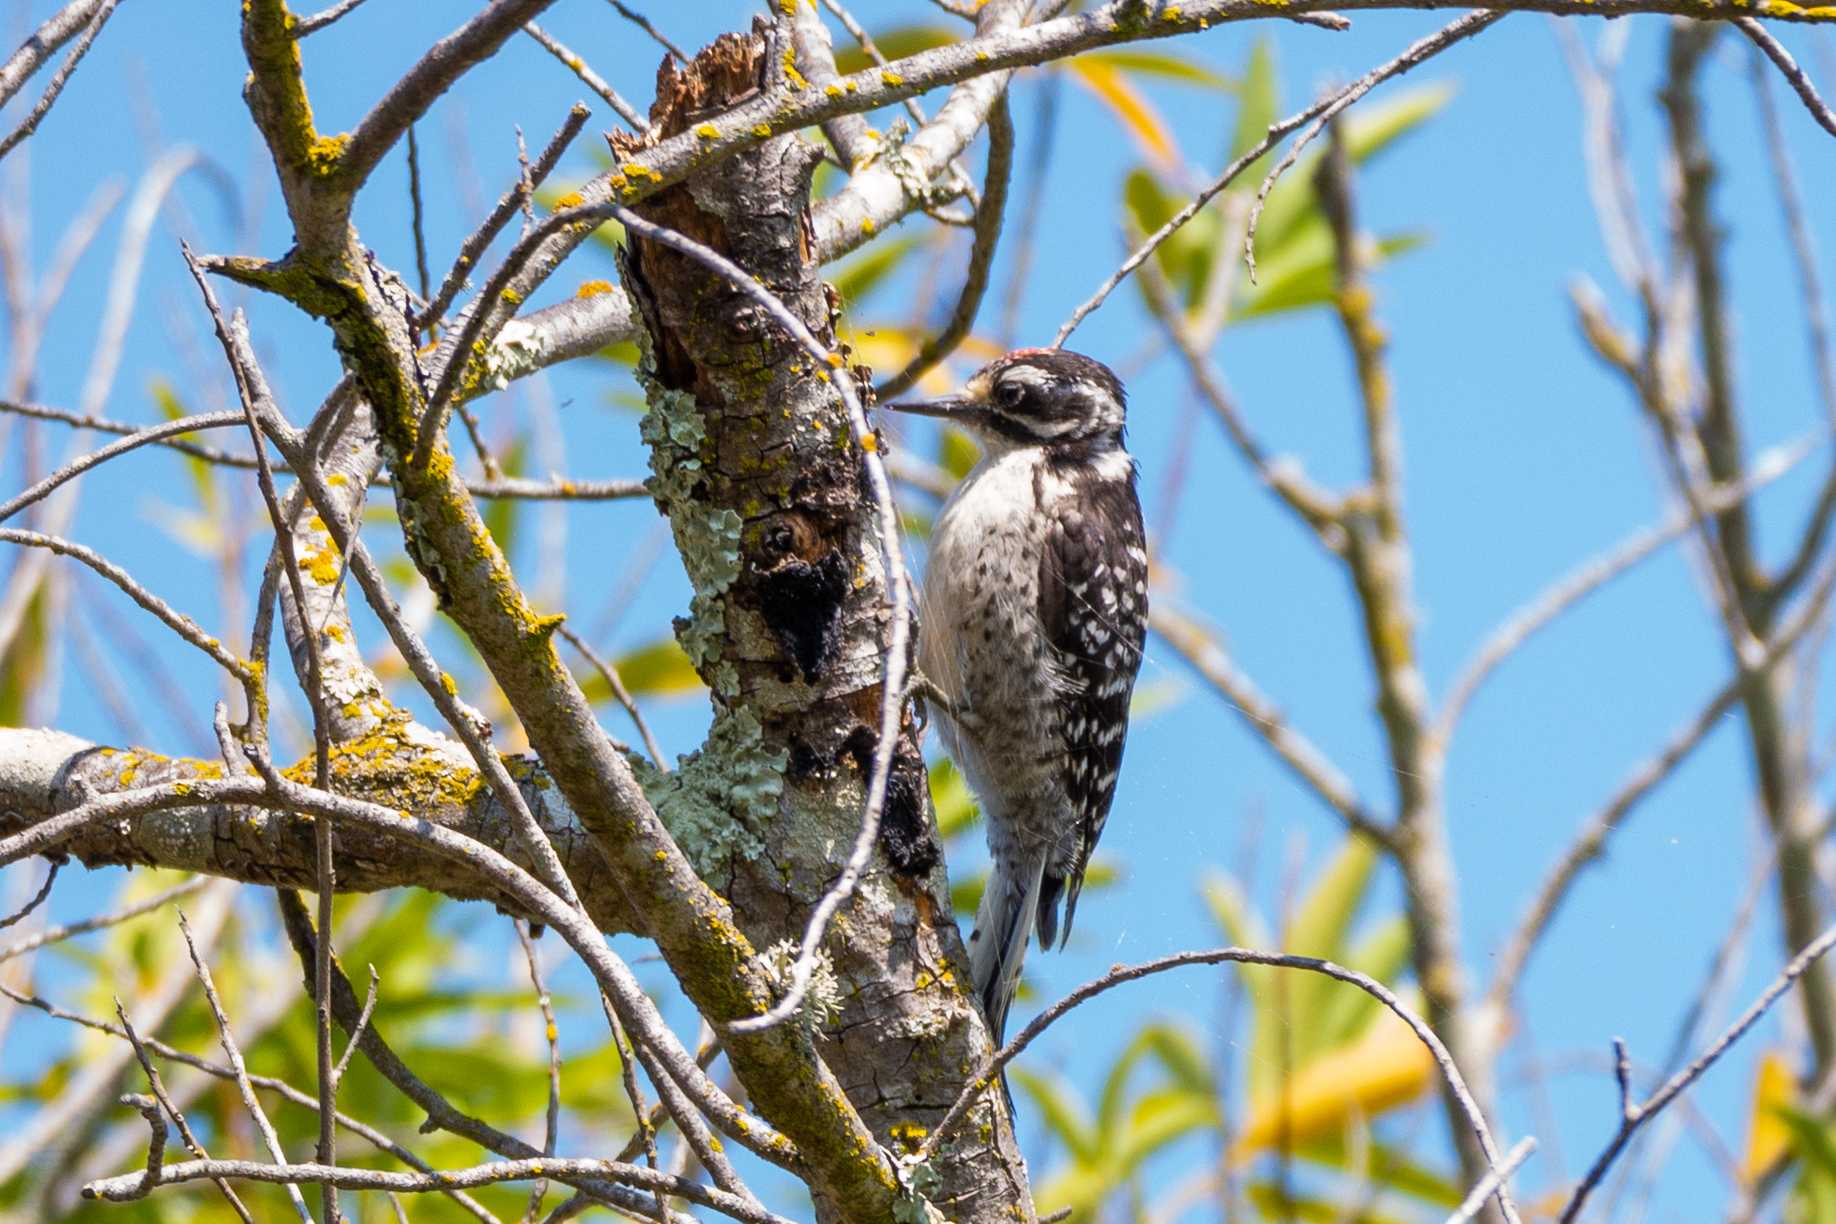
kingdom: Animalia
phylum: Chordata
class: Aves
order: Piciformes
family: Picidae
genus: Dryobates
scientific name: Dryobates nuttallii
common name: Nuttall's woodpecker
